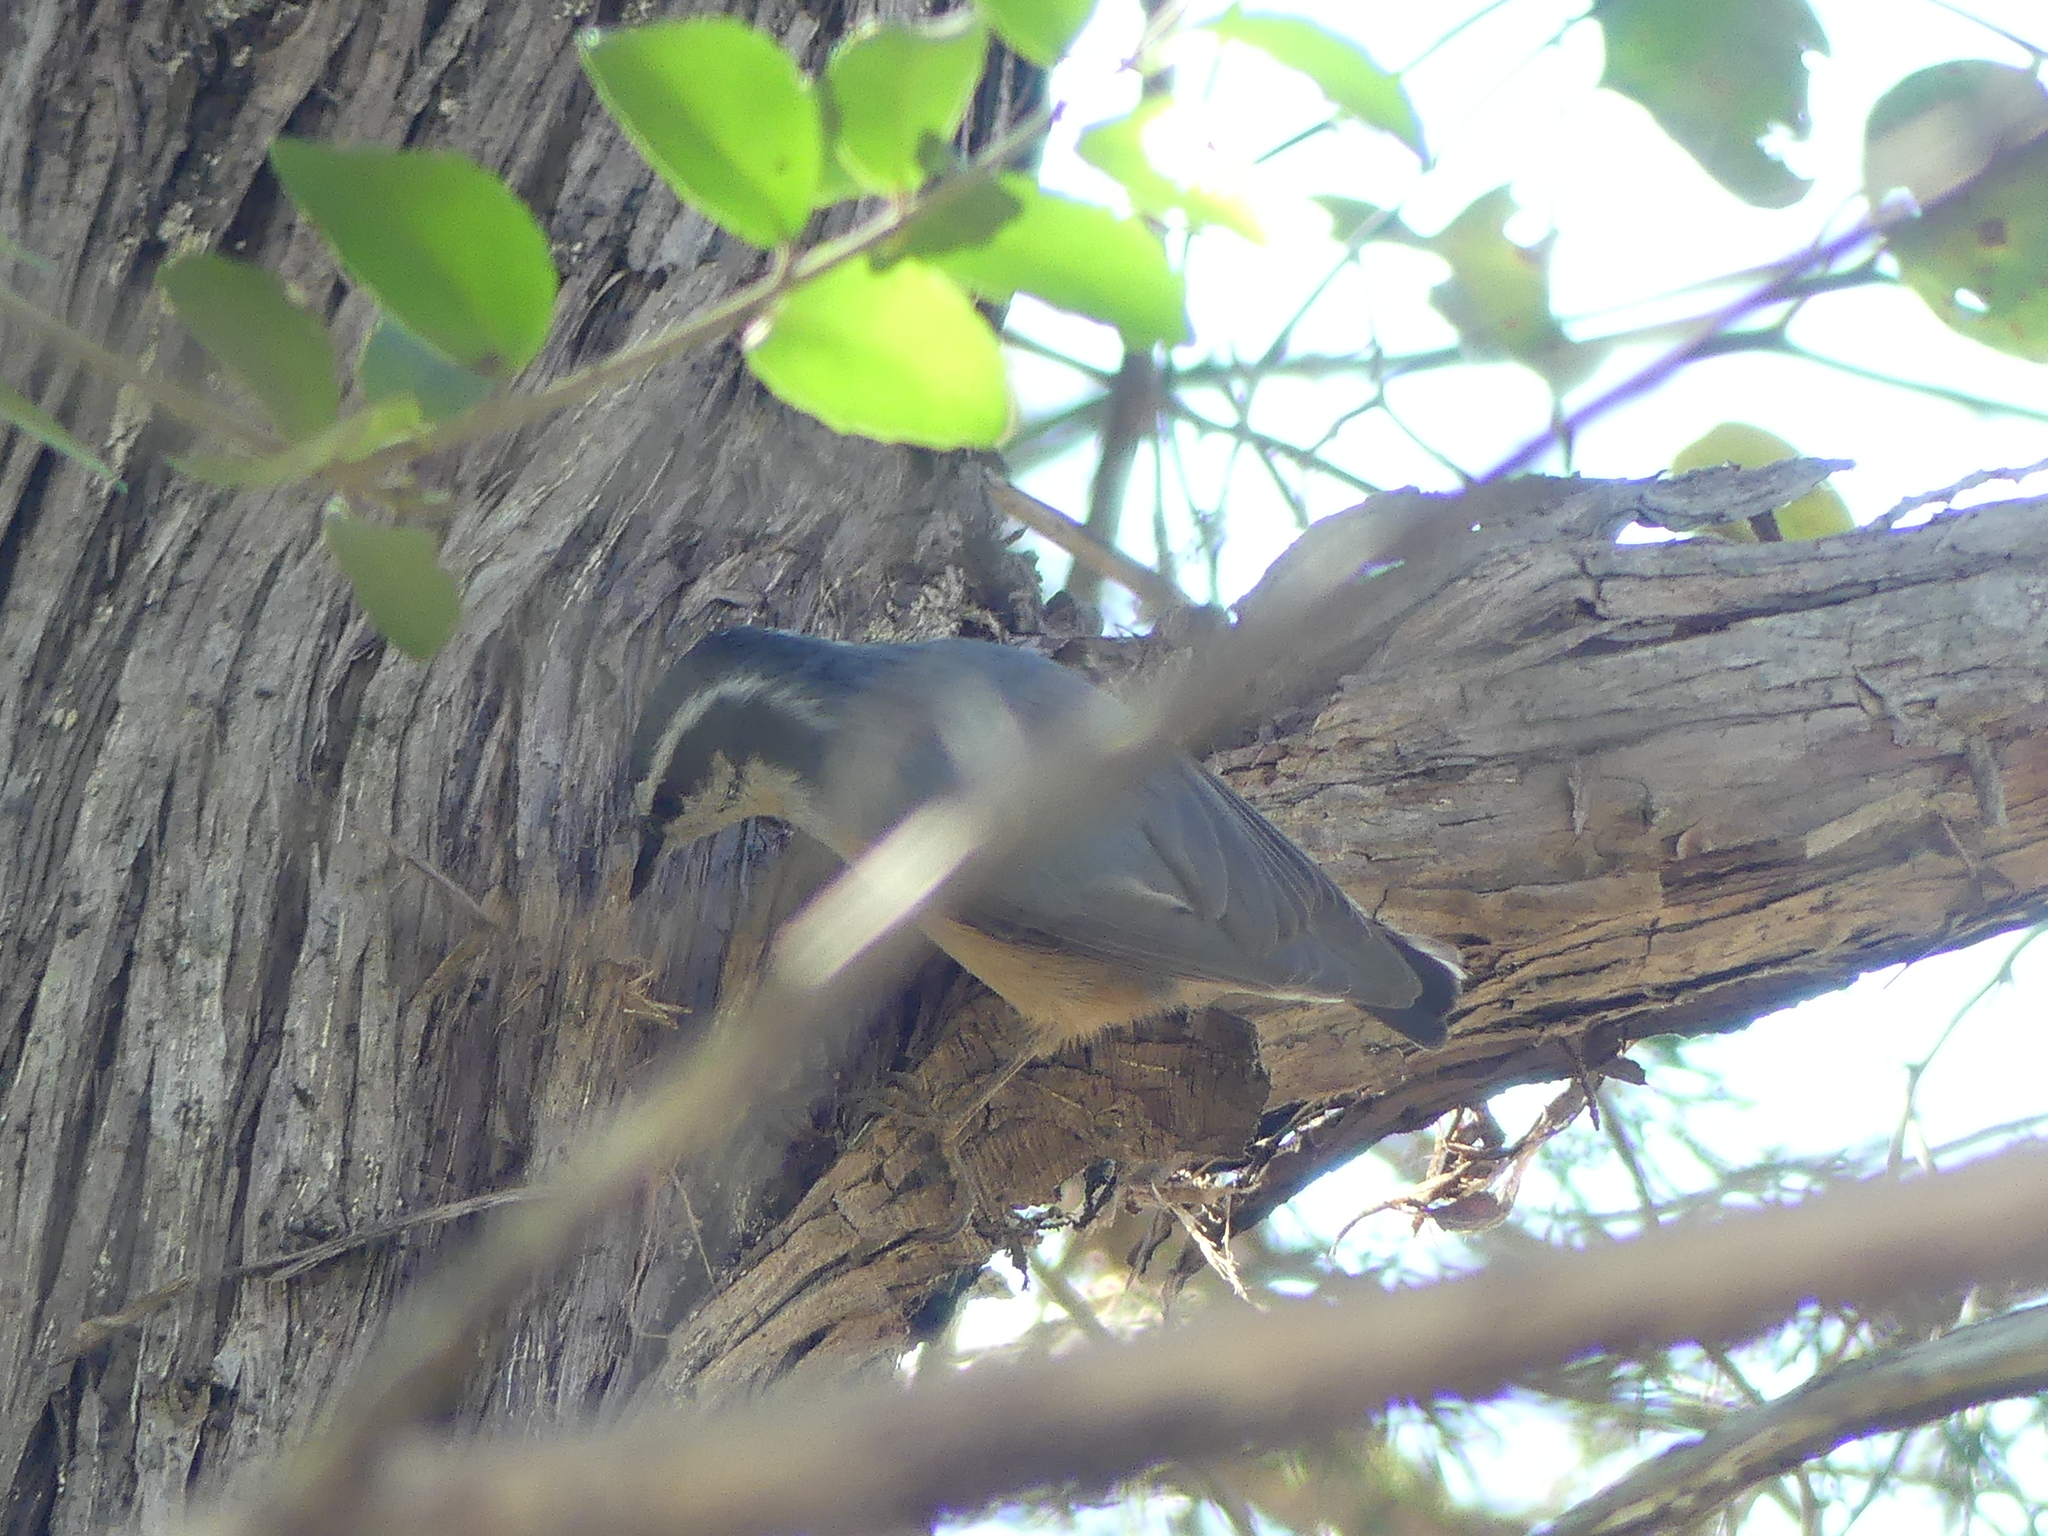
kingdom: Animalia
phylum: Chordata
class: Aves
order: Passeriformes
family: Sittidae
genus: Sitta
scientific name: Sitta canadensis
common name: Red-breasted nuthatch
